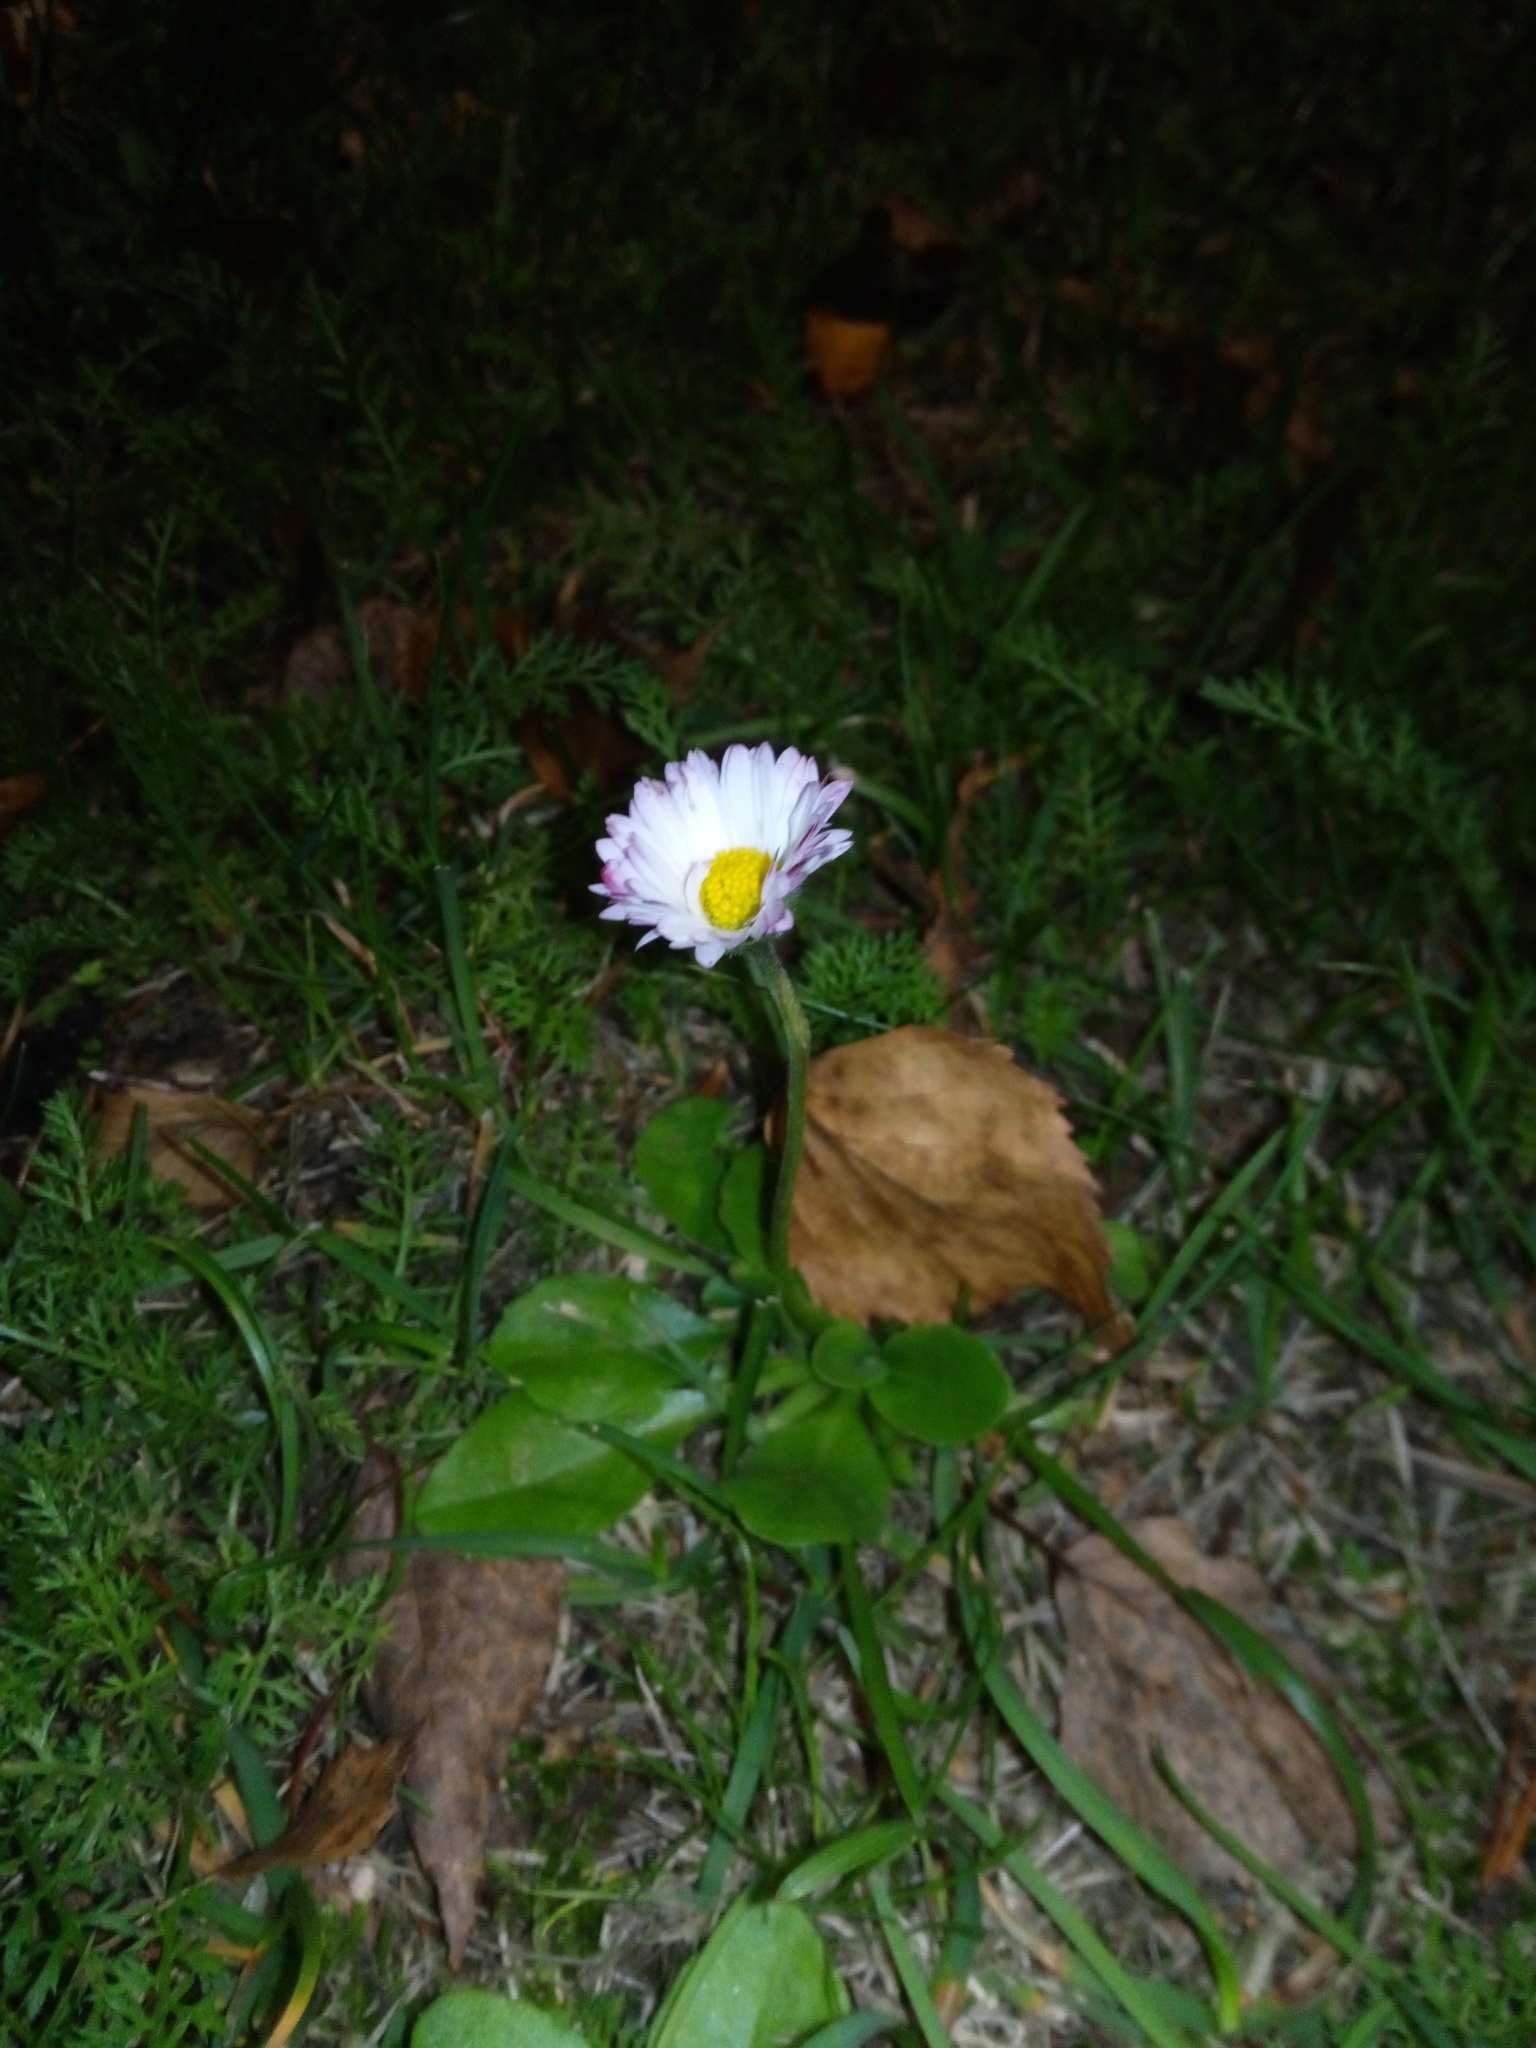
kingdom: Plantae
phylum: Tracheophyta
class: Magnoliopsida
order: Asterales
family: Asteraceae
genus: Bellis
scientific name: Bellis perennis
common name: Lawndaisy
